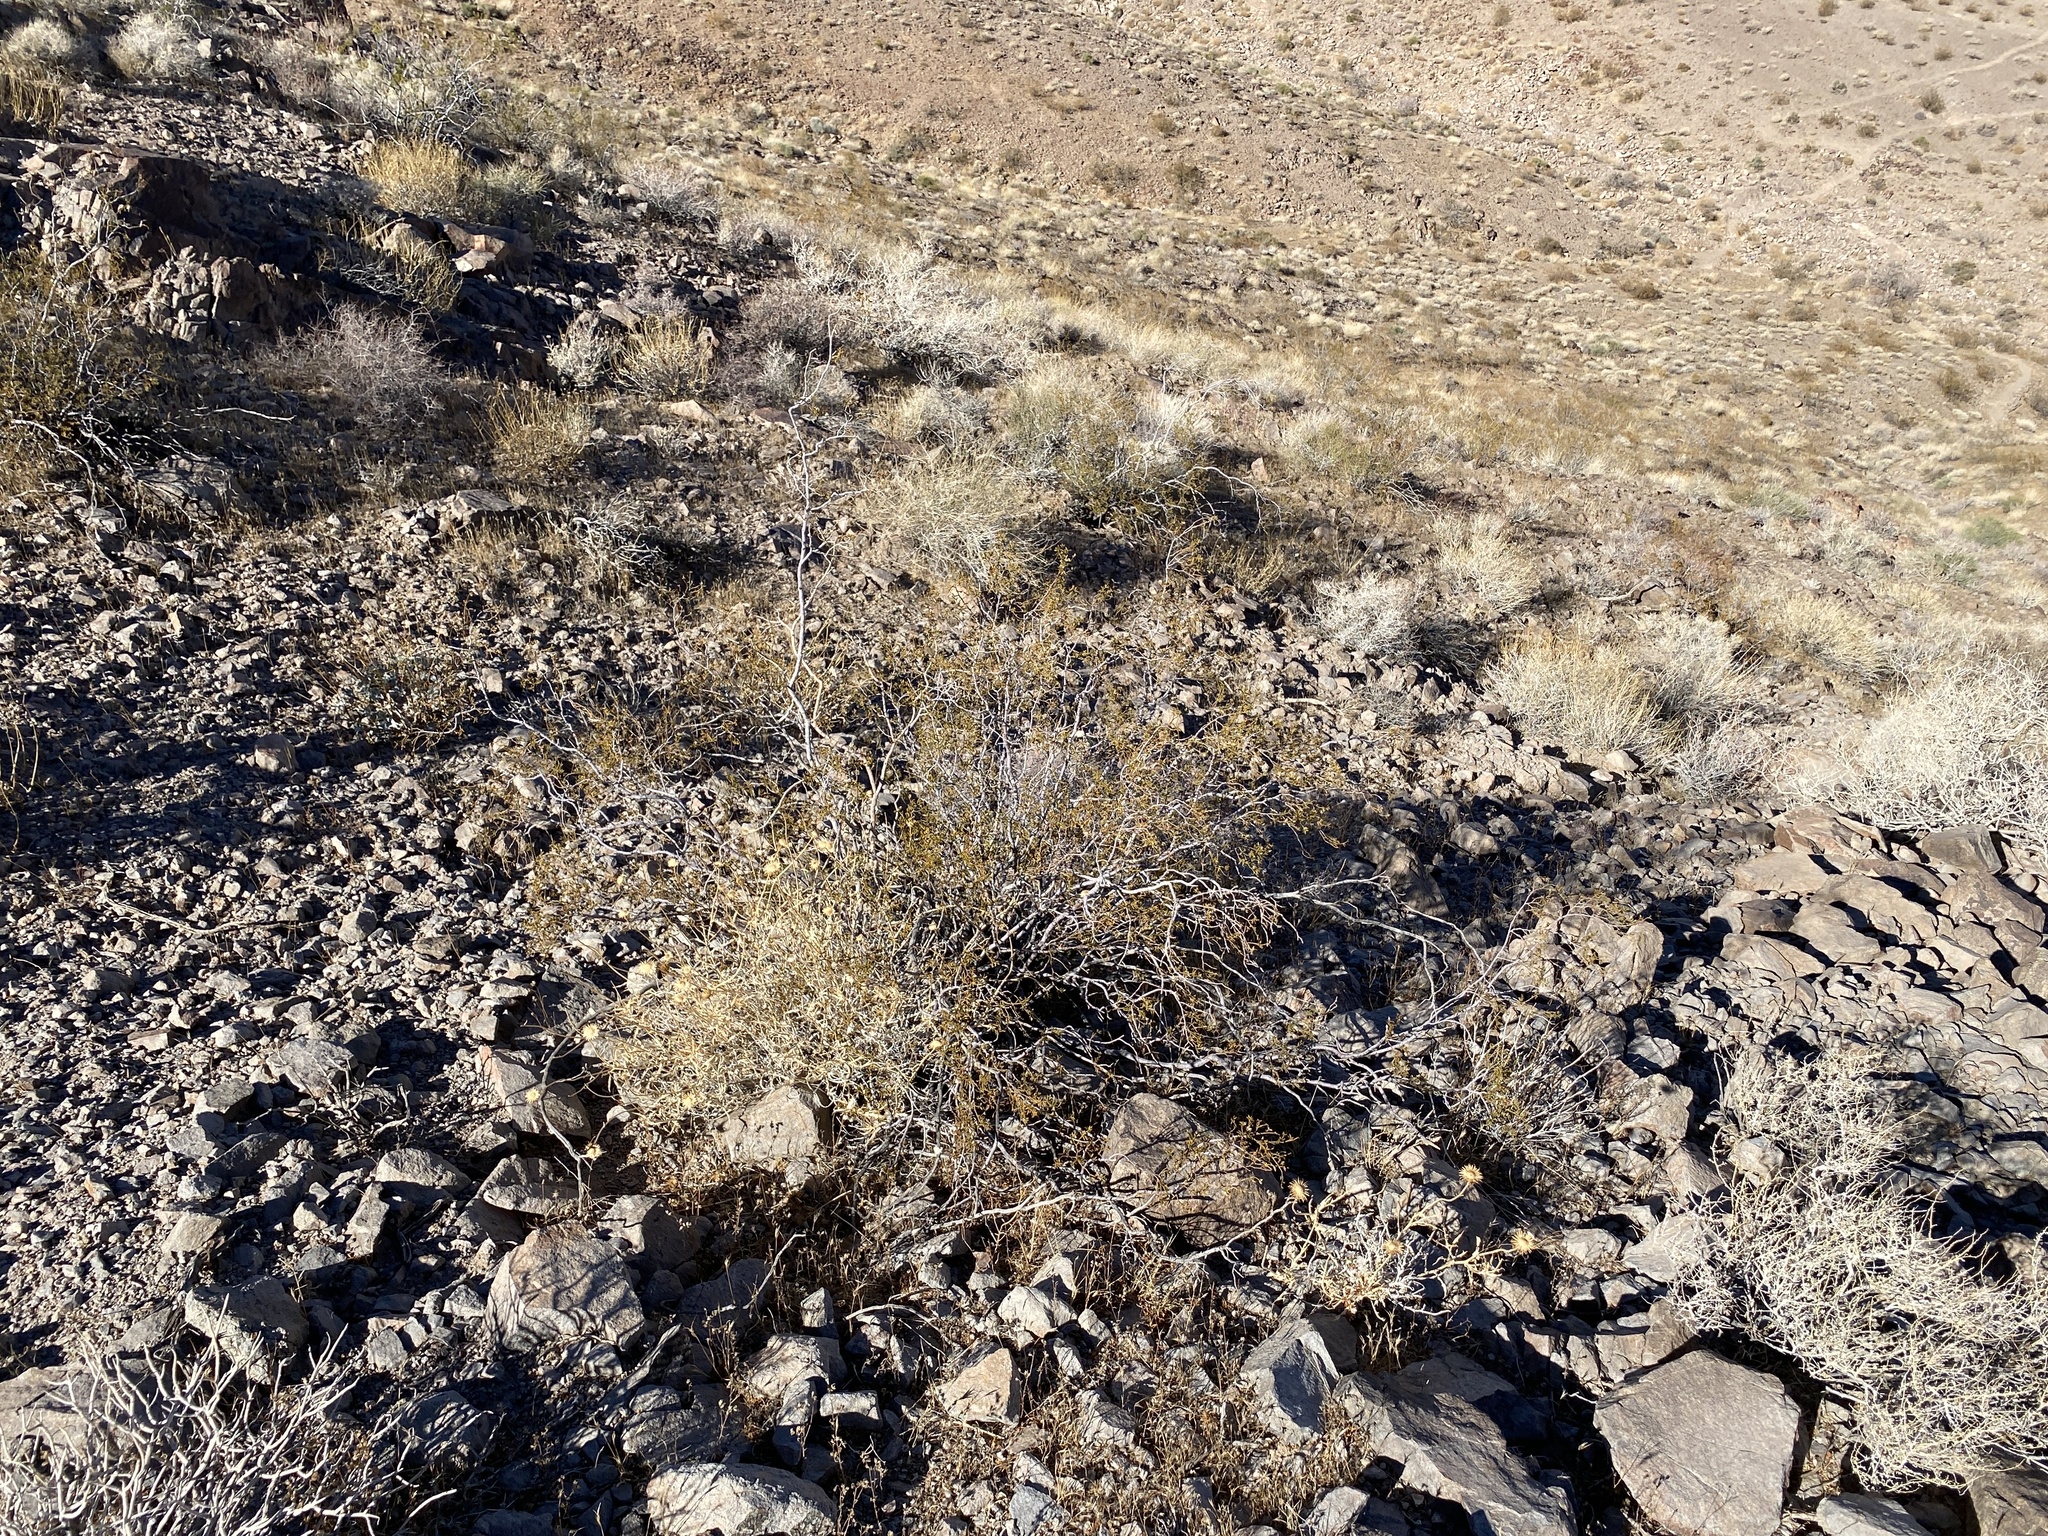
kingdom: Plantae
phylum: Tracheophyta
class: Magnoliopsida
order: Zygophyllales
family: Zygophyllaceae
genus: Larrea
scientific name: Larrea tridentata
